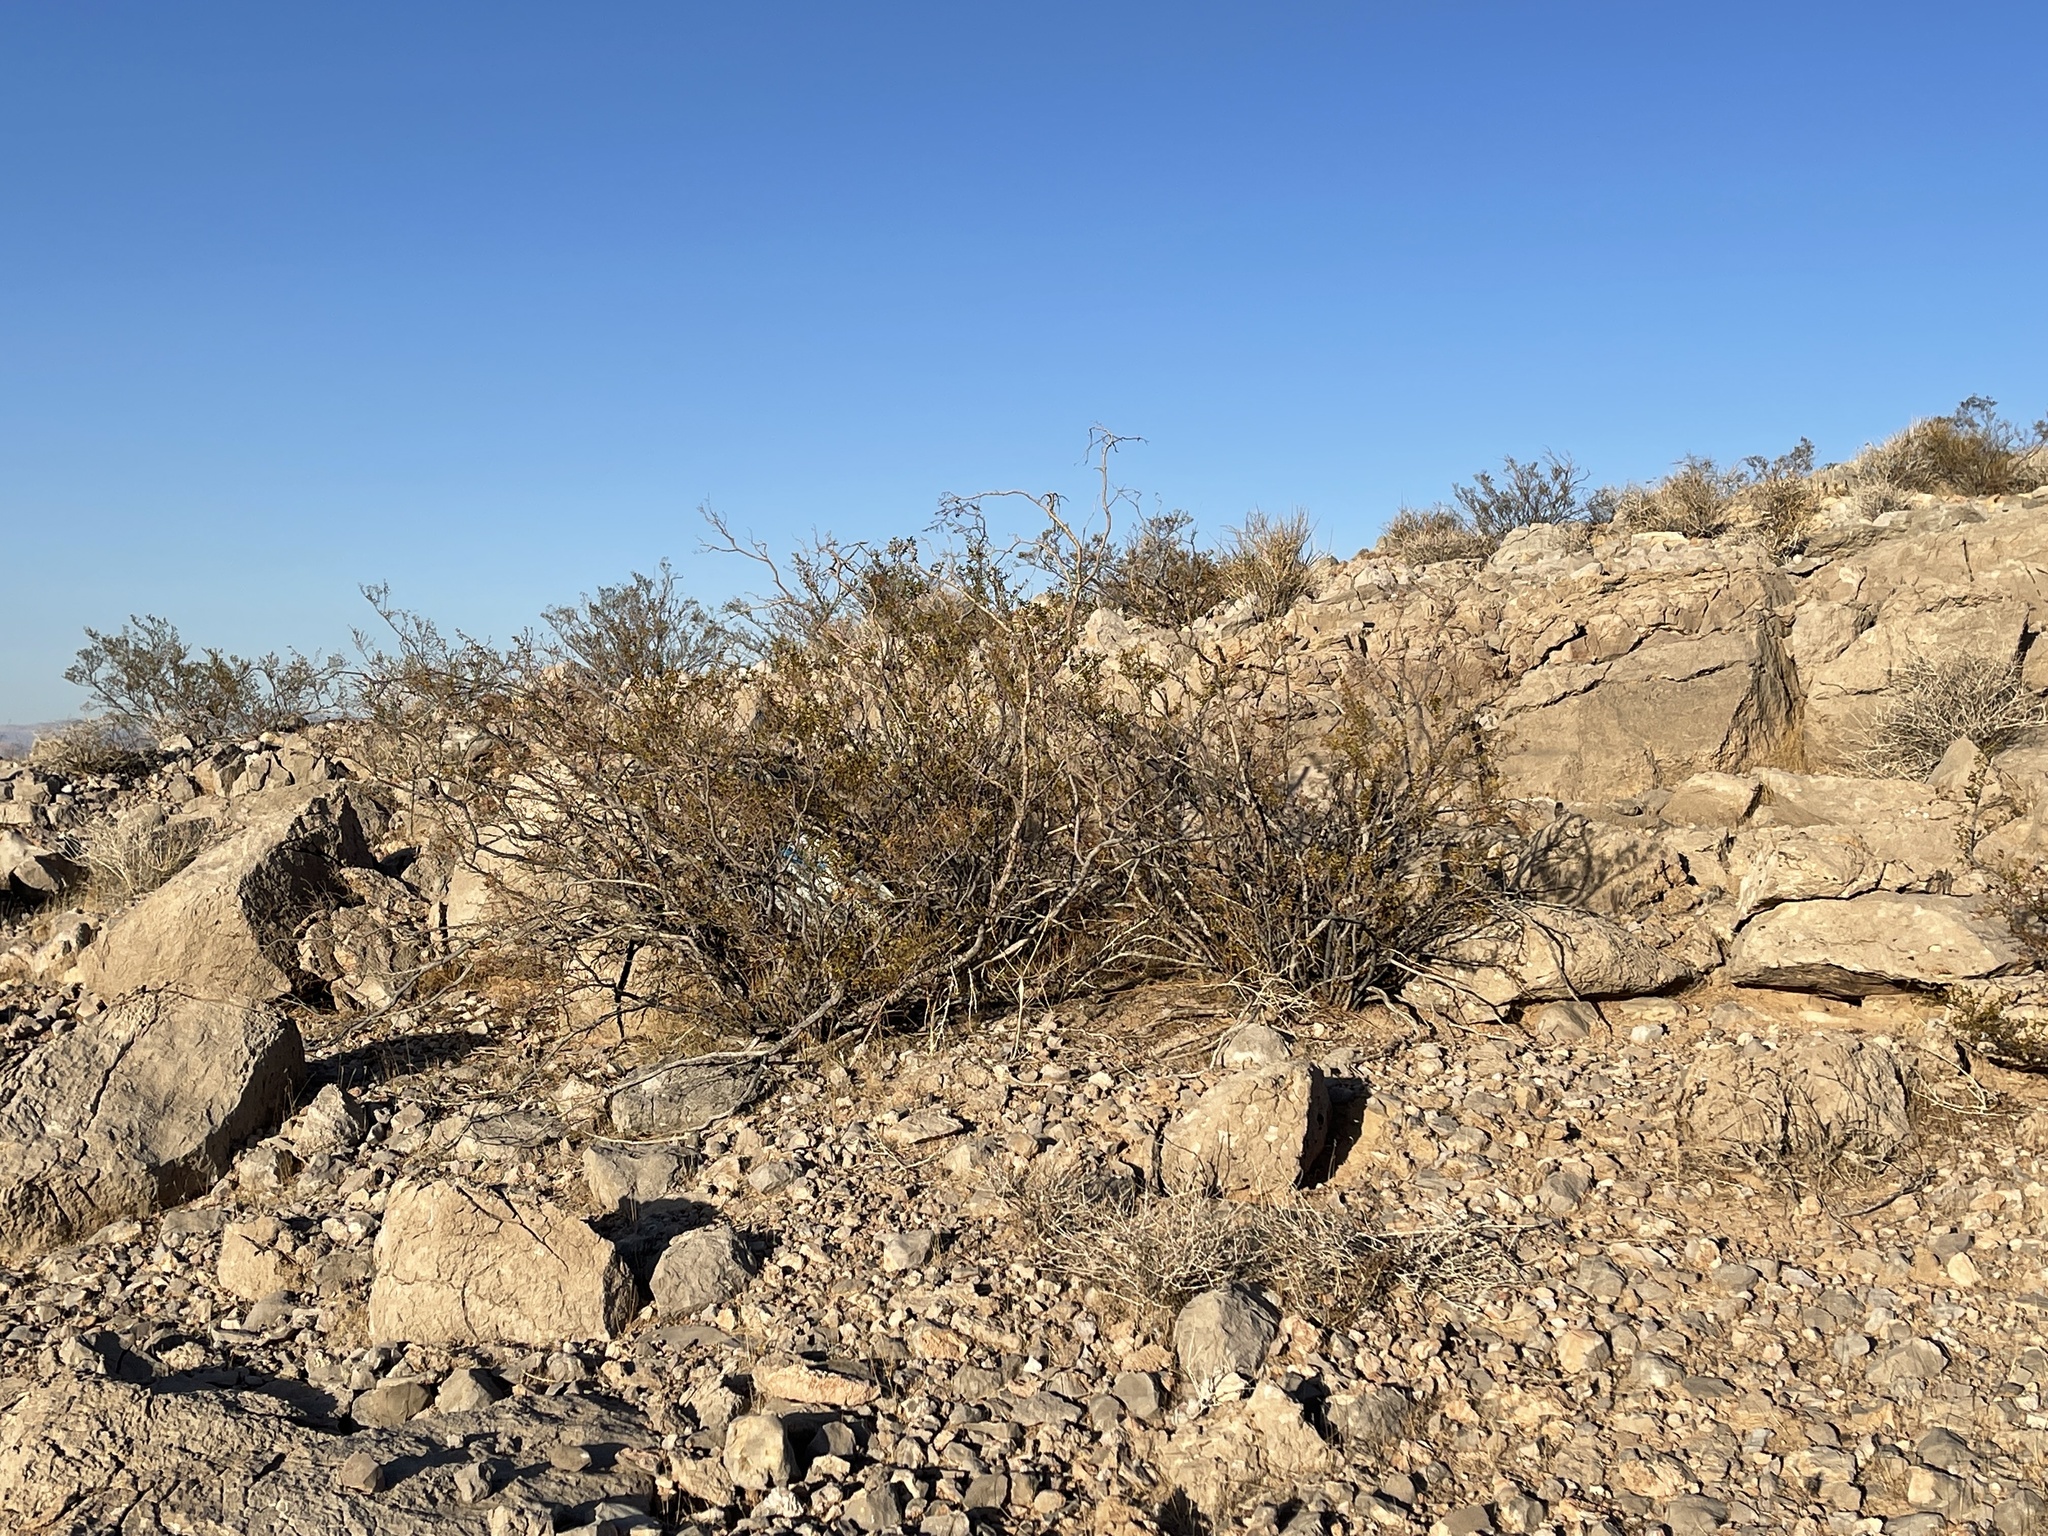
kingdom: Plantae
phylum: Tracheophyta
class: Magnoliopsida
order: Zygophyllales
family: Zygophyllaceae
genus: Larrea
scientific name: Larrea tridentata
